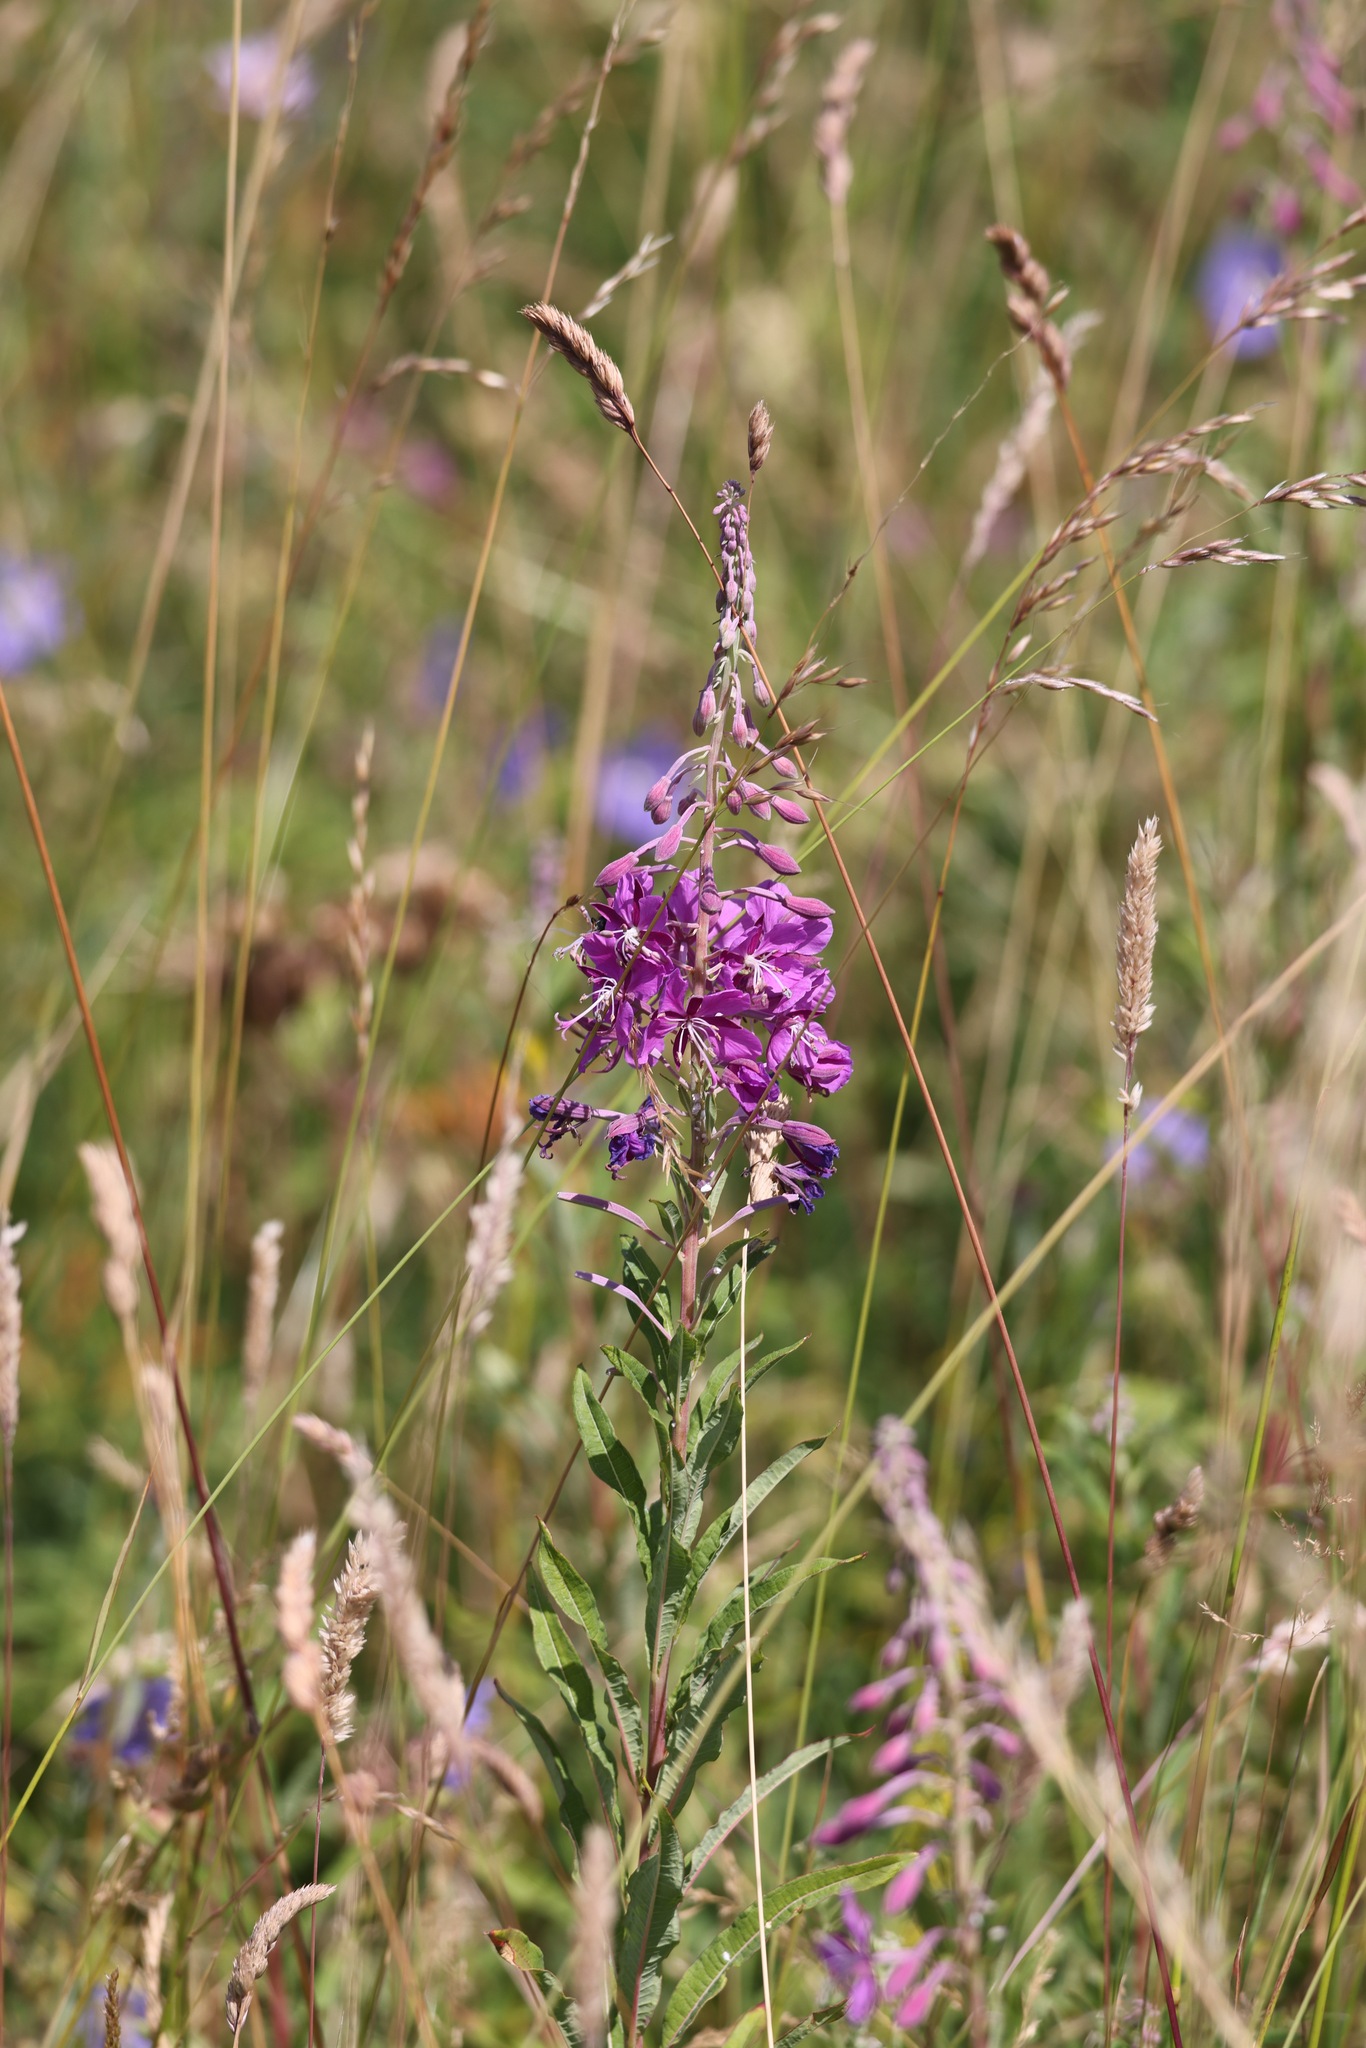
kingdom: Plantae
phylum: Tracheophyta
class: Magnoliopsida
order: Myrtales
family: Onagraceae
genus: Chamaenerion
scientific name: Chamaenerion angustifolium
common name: Fireweed
